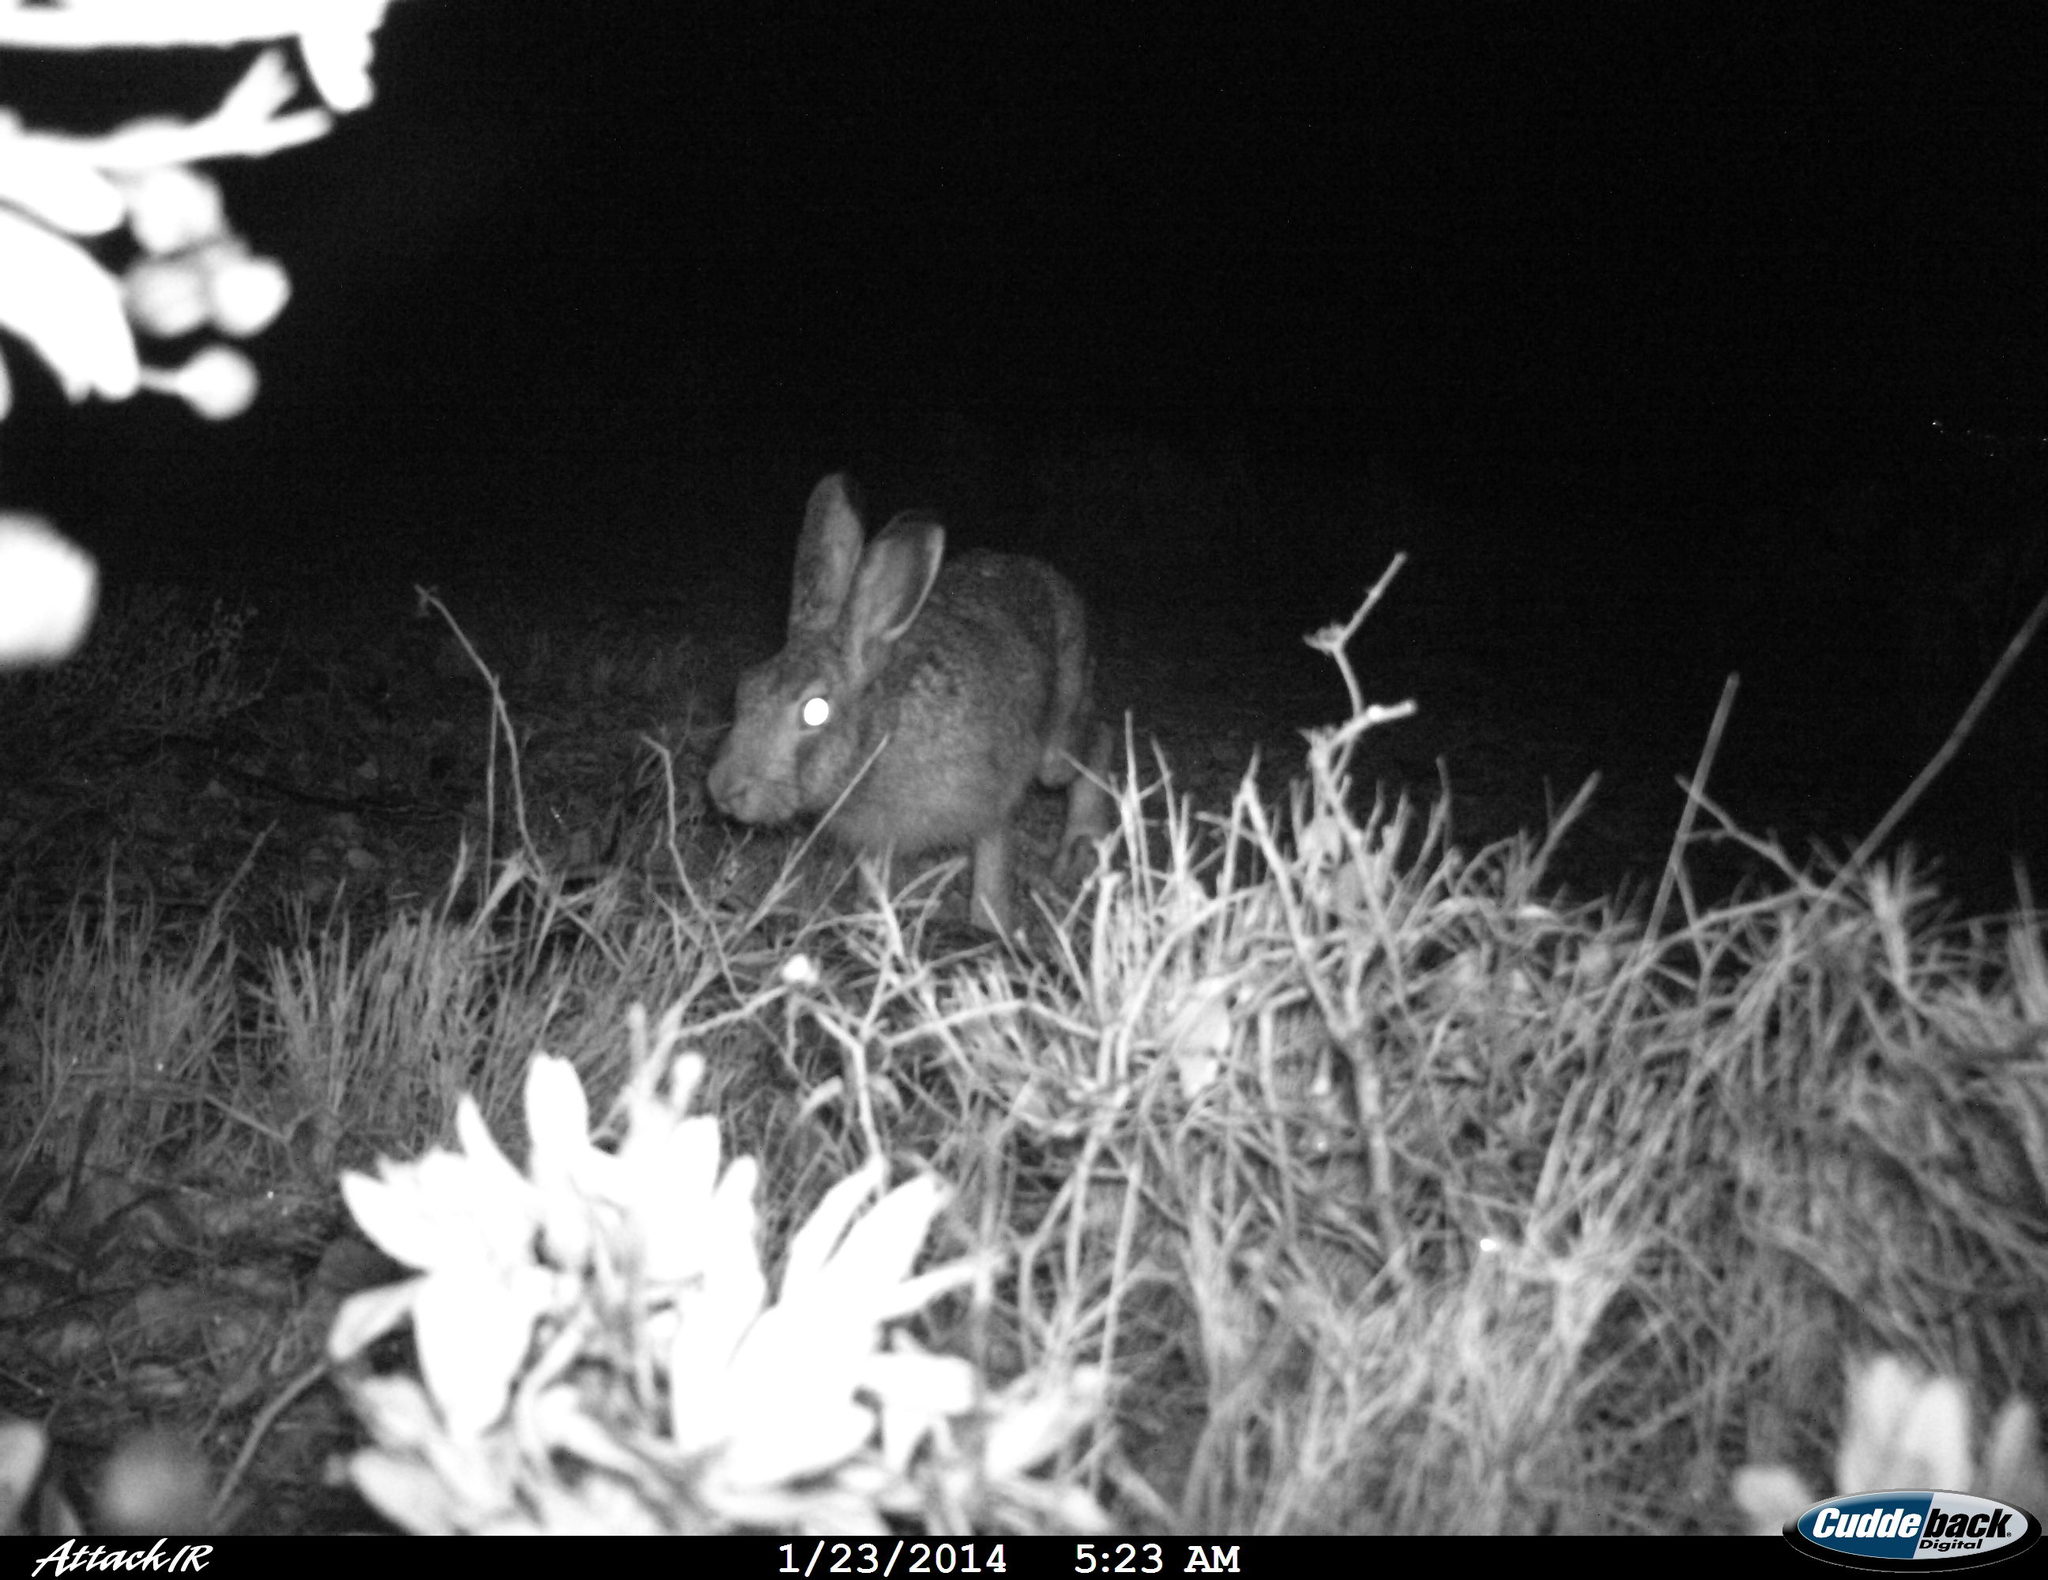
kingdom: Animalia
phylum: Chordata
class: Mammalia
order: Lagomorpha
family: Leporidae
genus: Lepus
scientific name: Lepus europaeus
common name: European hare
